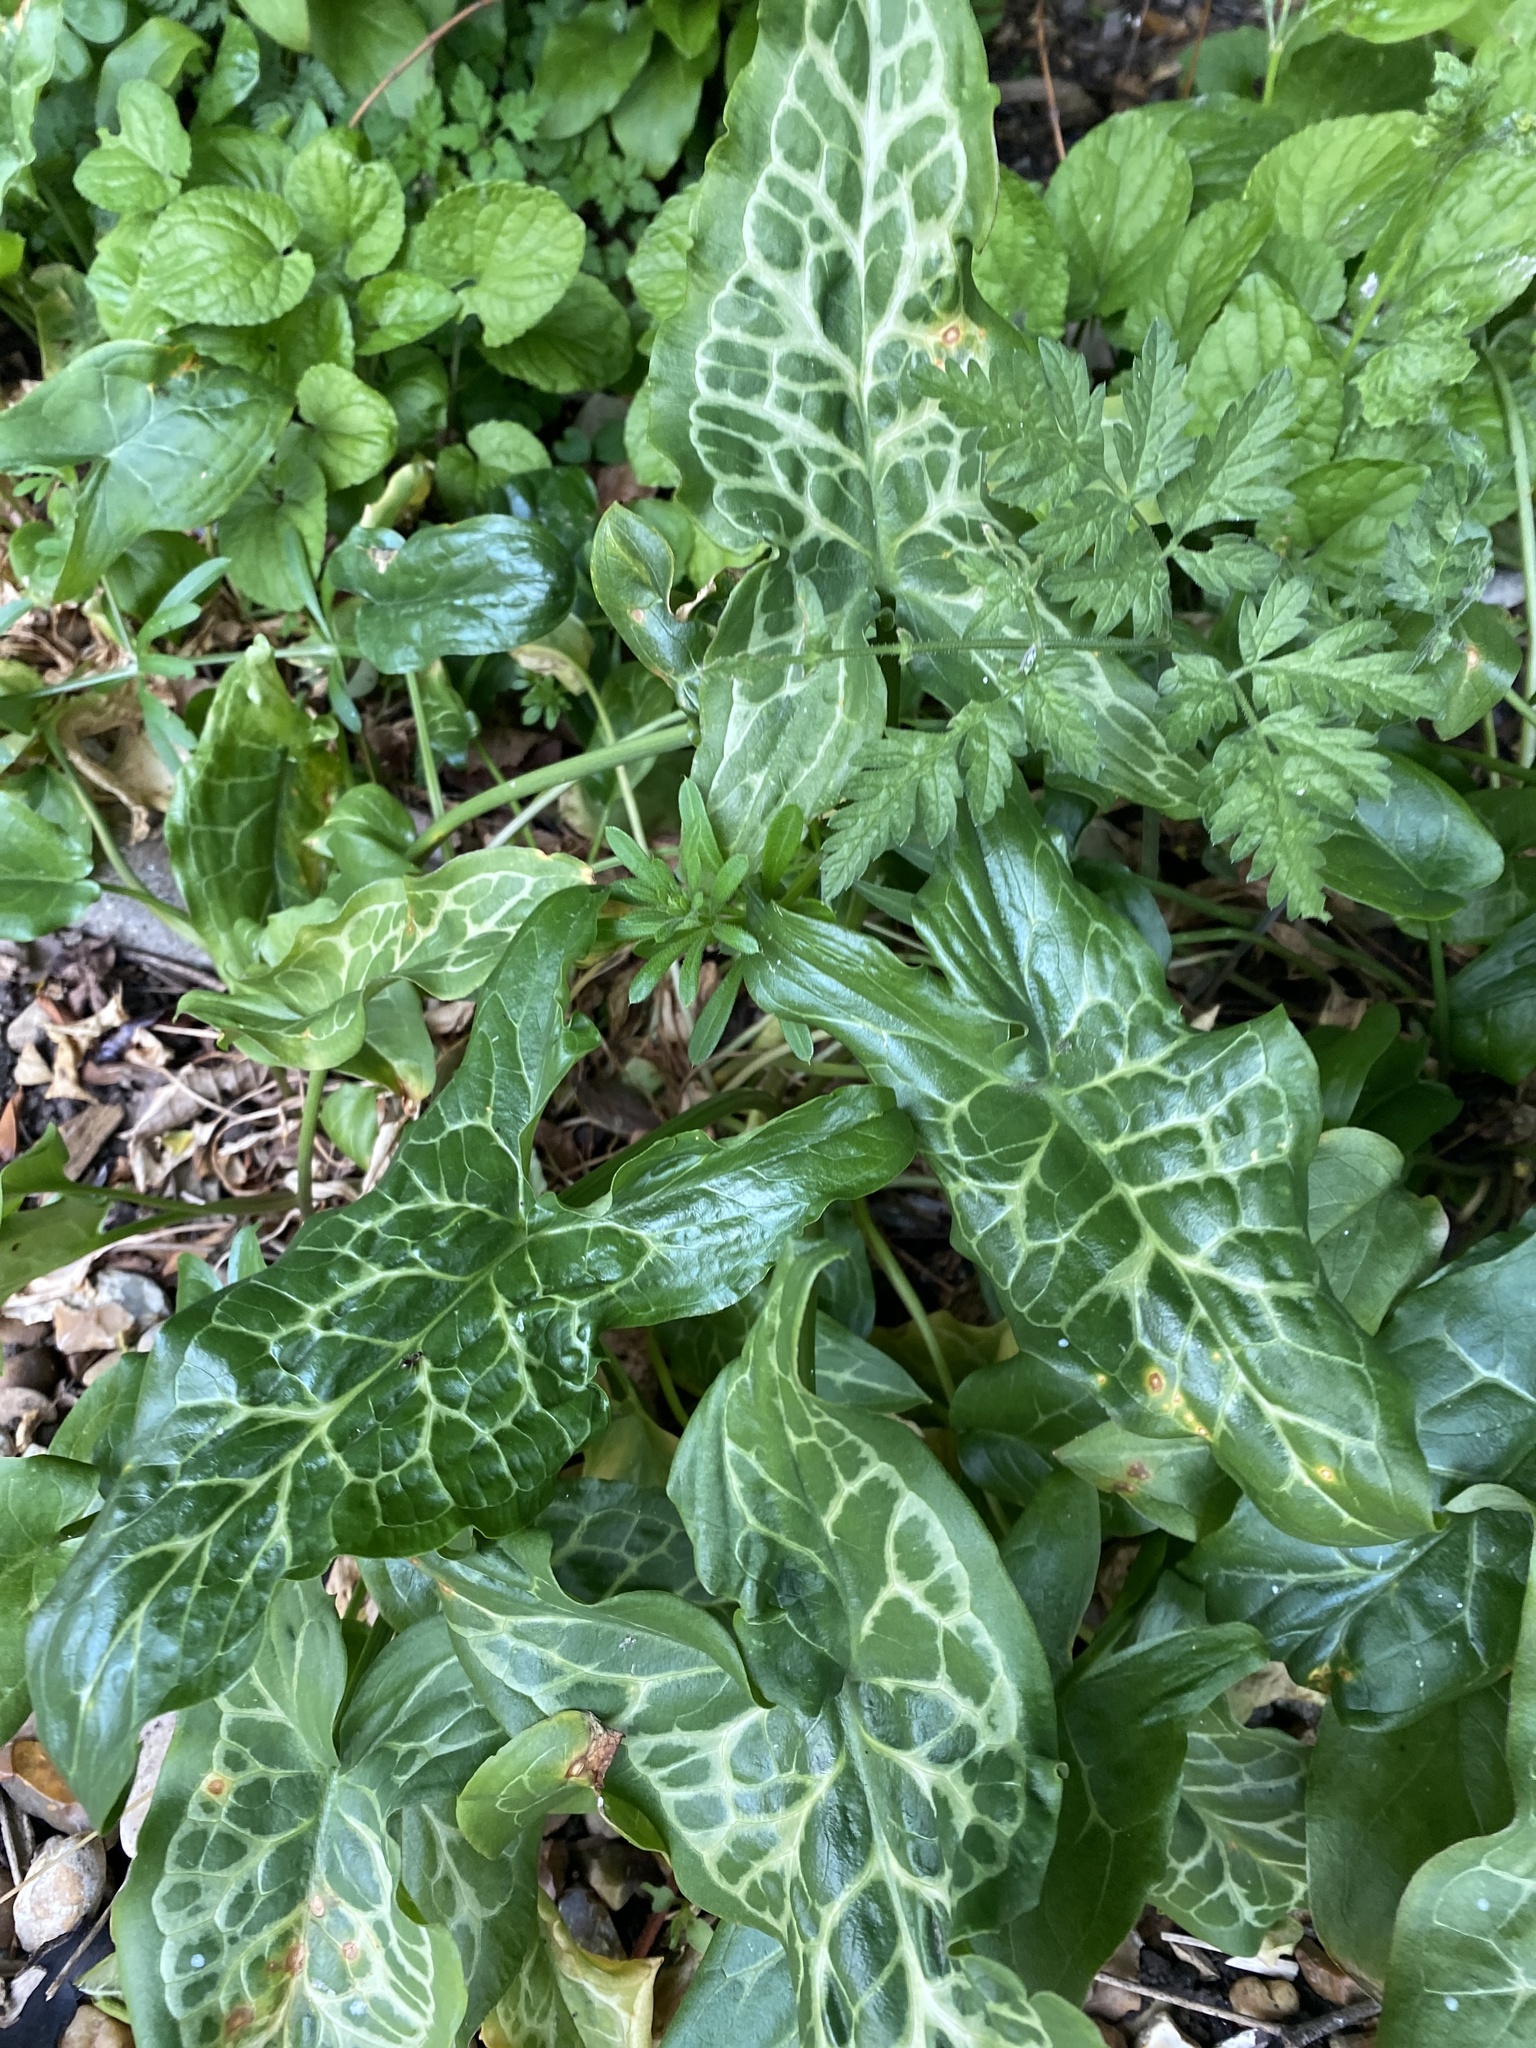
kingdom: Plantae
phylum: Tracheophyta
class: Liliopsida
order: Alismatales
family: Araceae
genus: Arum
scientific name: Arum italicum
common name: Italian lords-and-ladies
